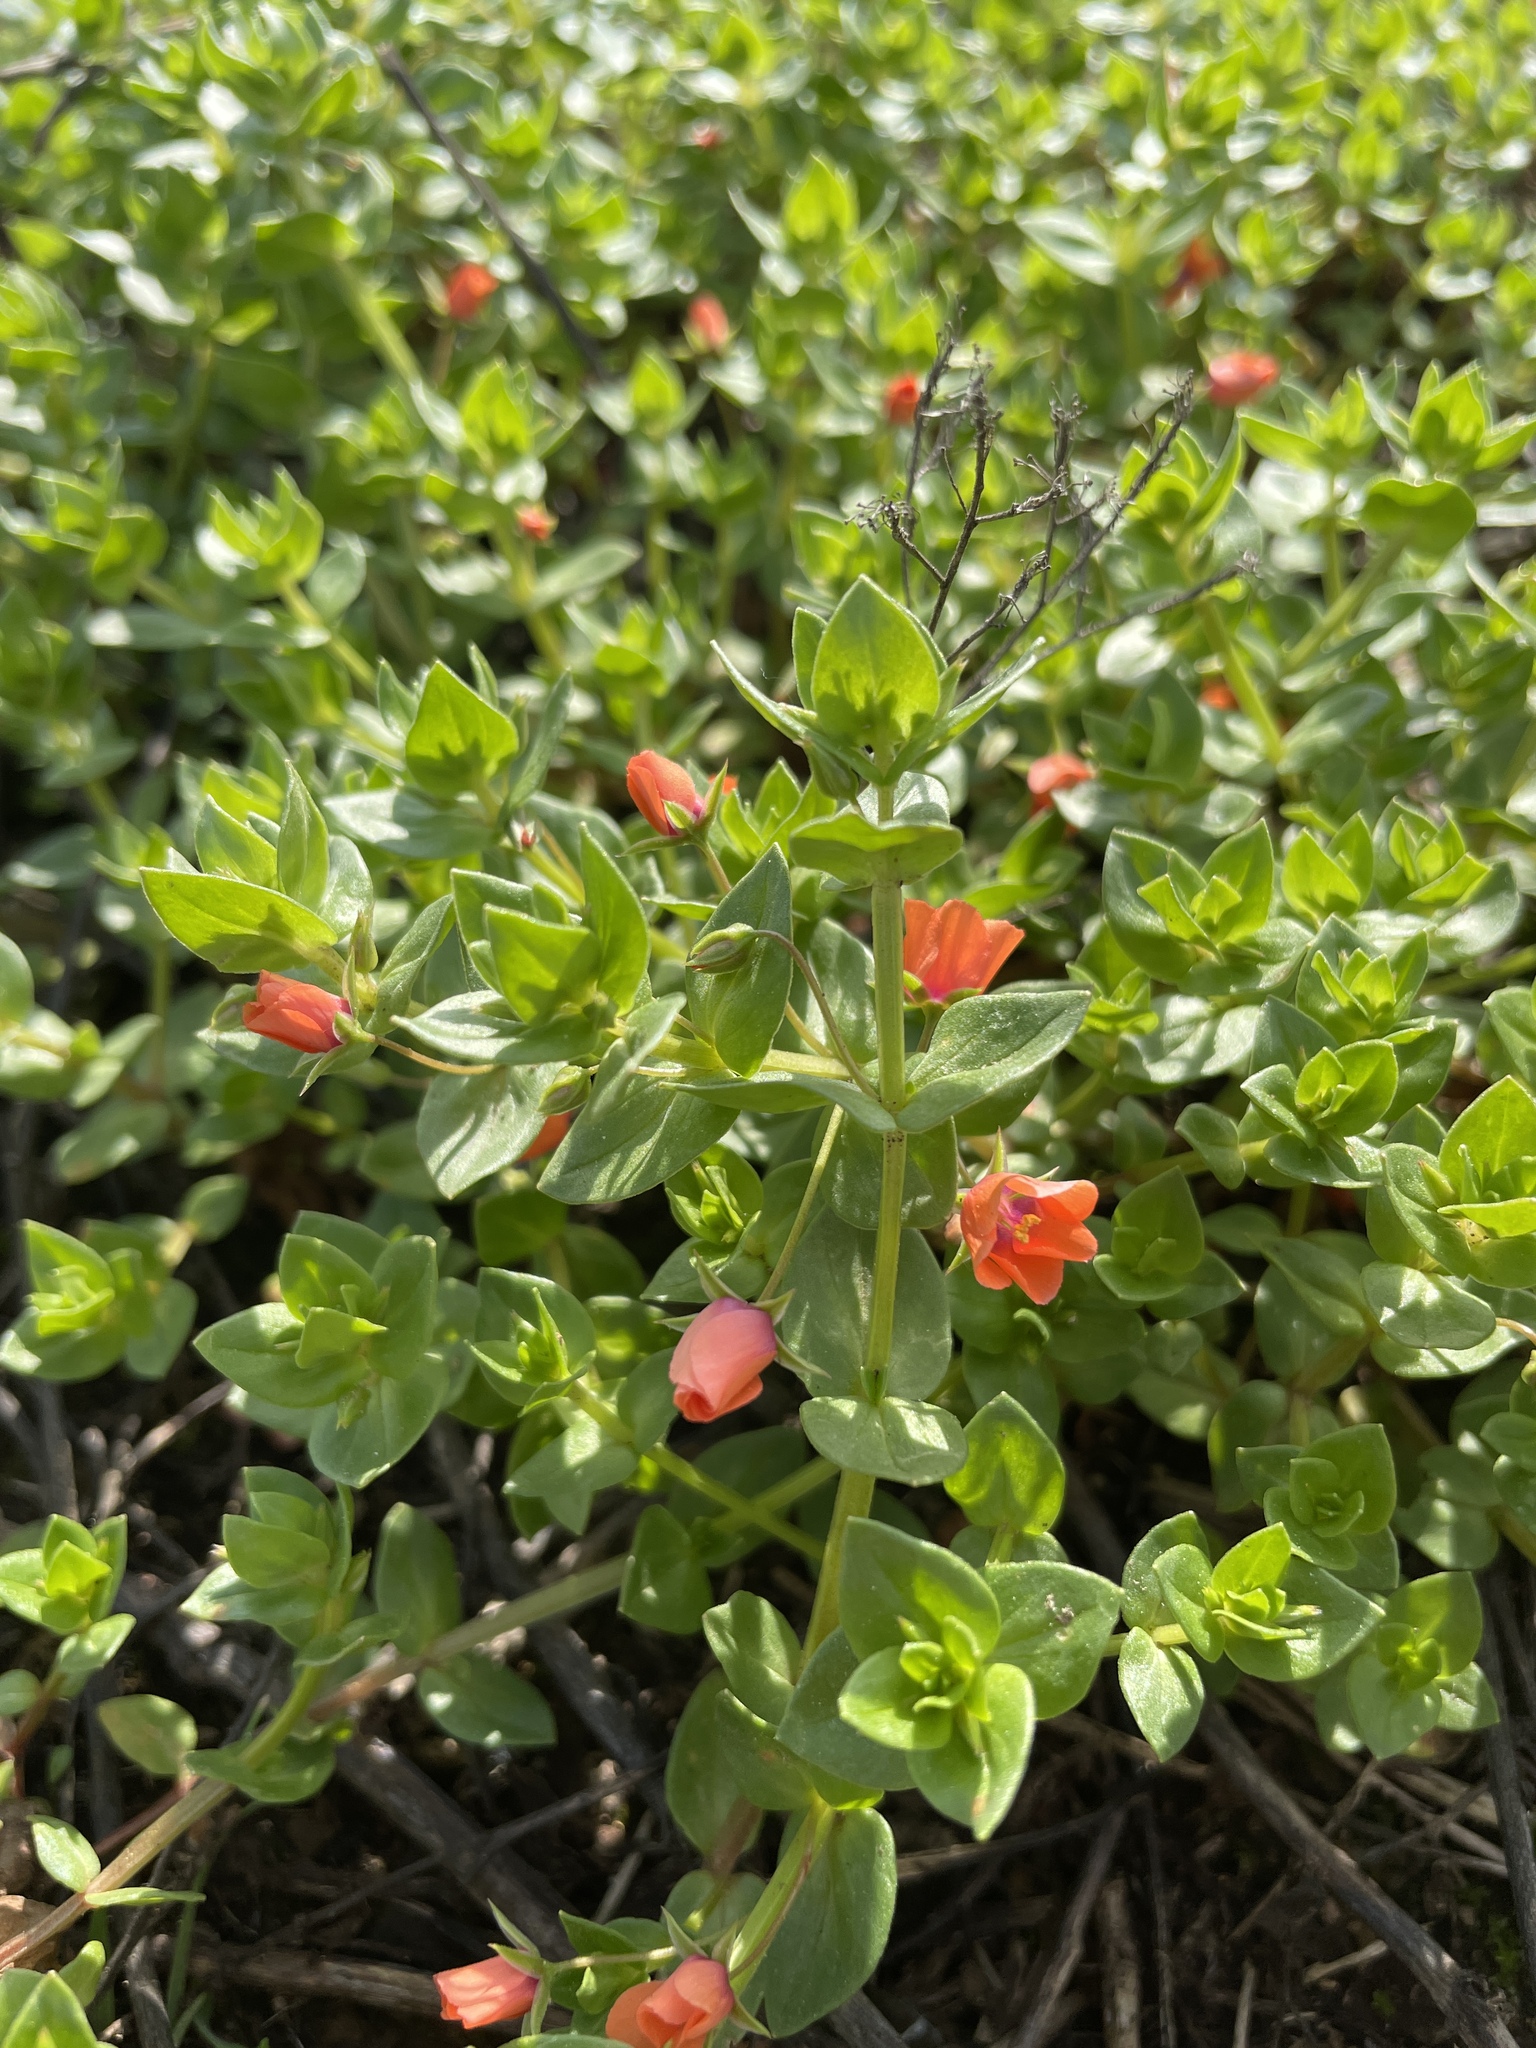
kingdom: Plantae
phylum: Tracheophyta
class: Magnoliopsida
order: Ericales
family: Primulaceae
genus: Lysimachia
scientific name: Lysimachia arvensis
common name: Scarlet pimpernel
